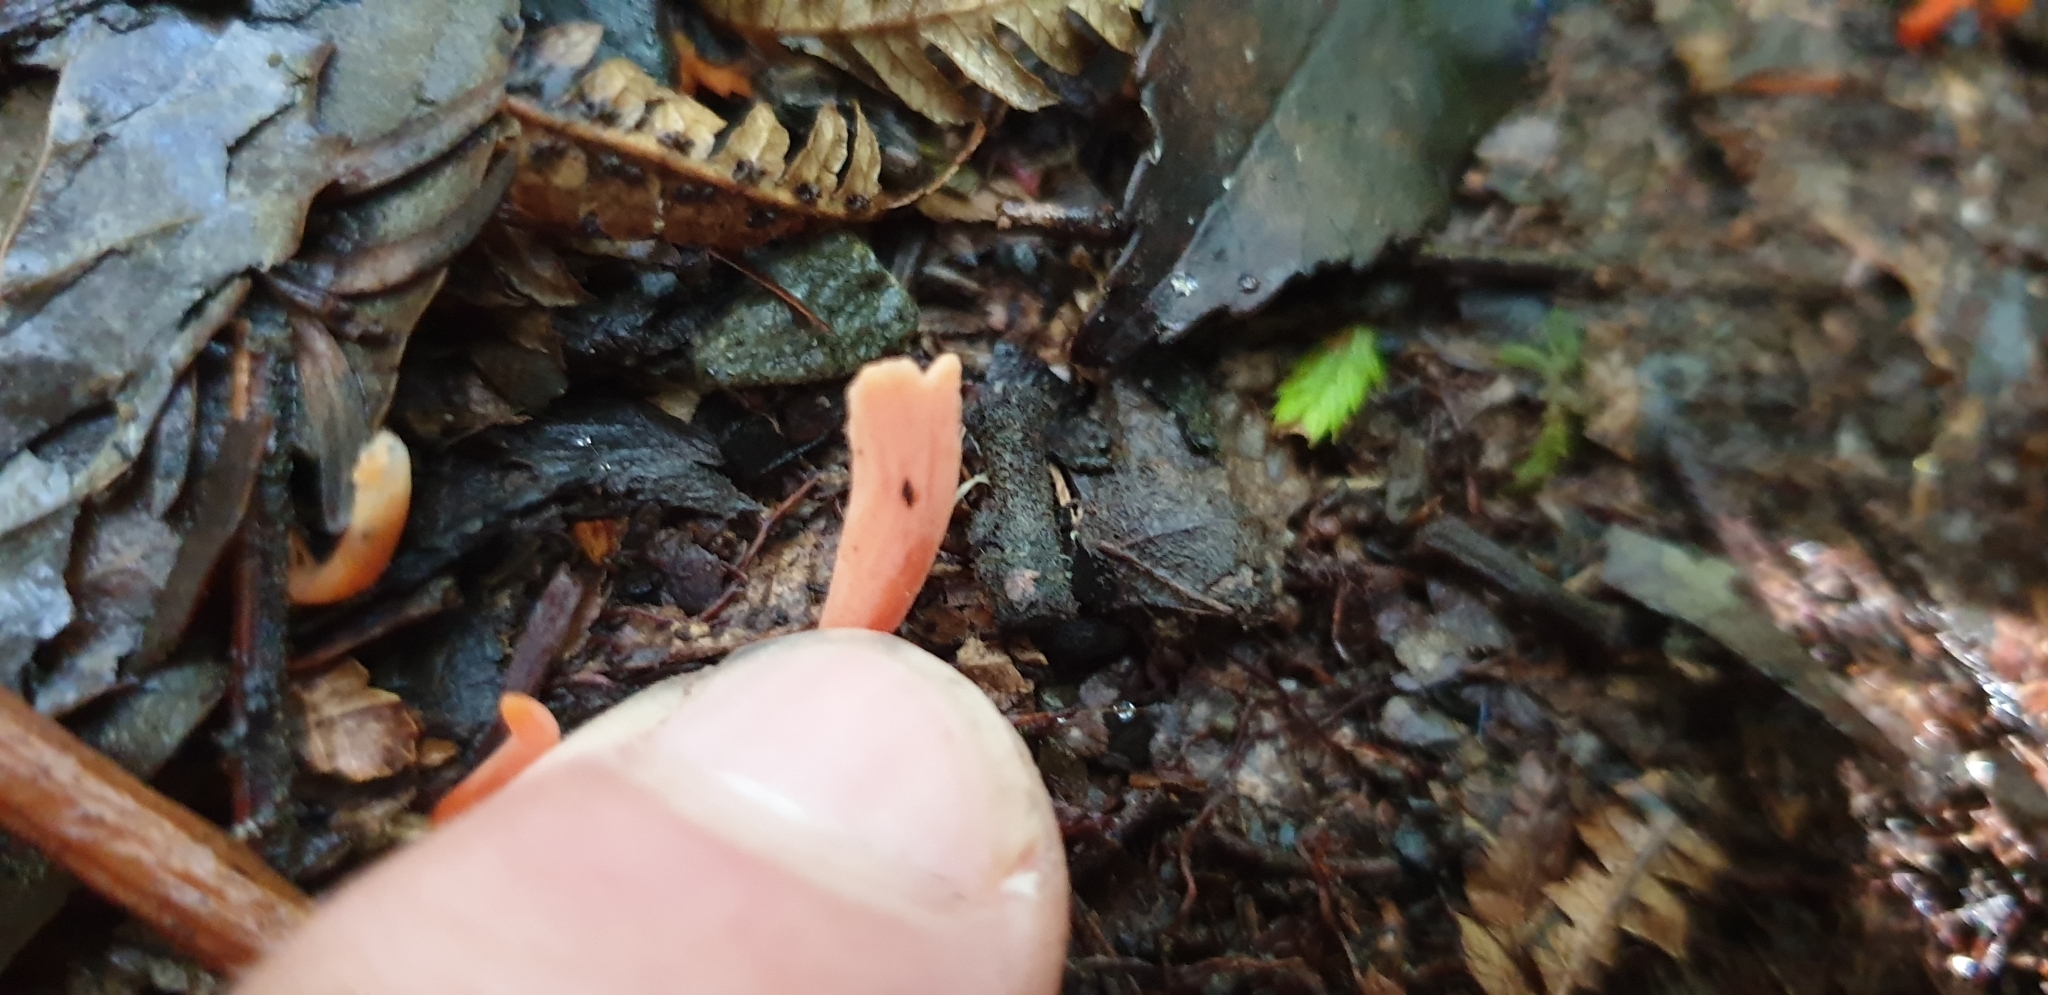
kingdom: Fungi
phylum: Basidiomycota
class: Agaricomycetes
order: Agaricales
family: Clavariaceae
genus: Clavulinopsis
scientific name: Clavulinopsis sulcata
